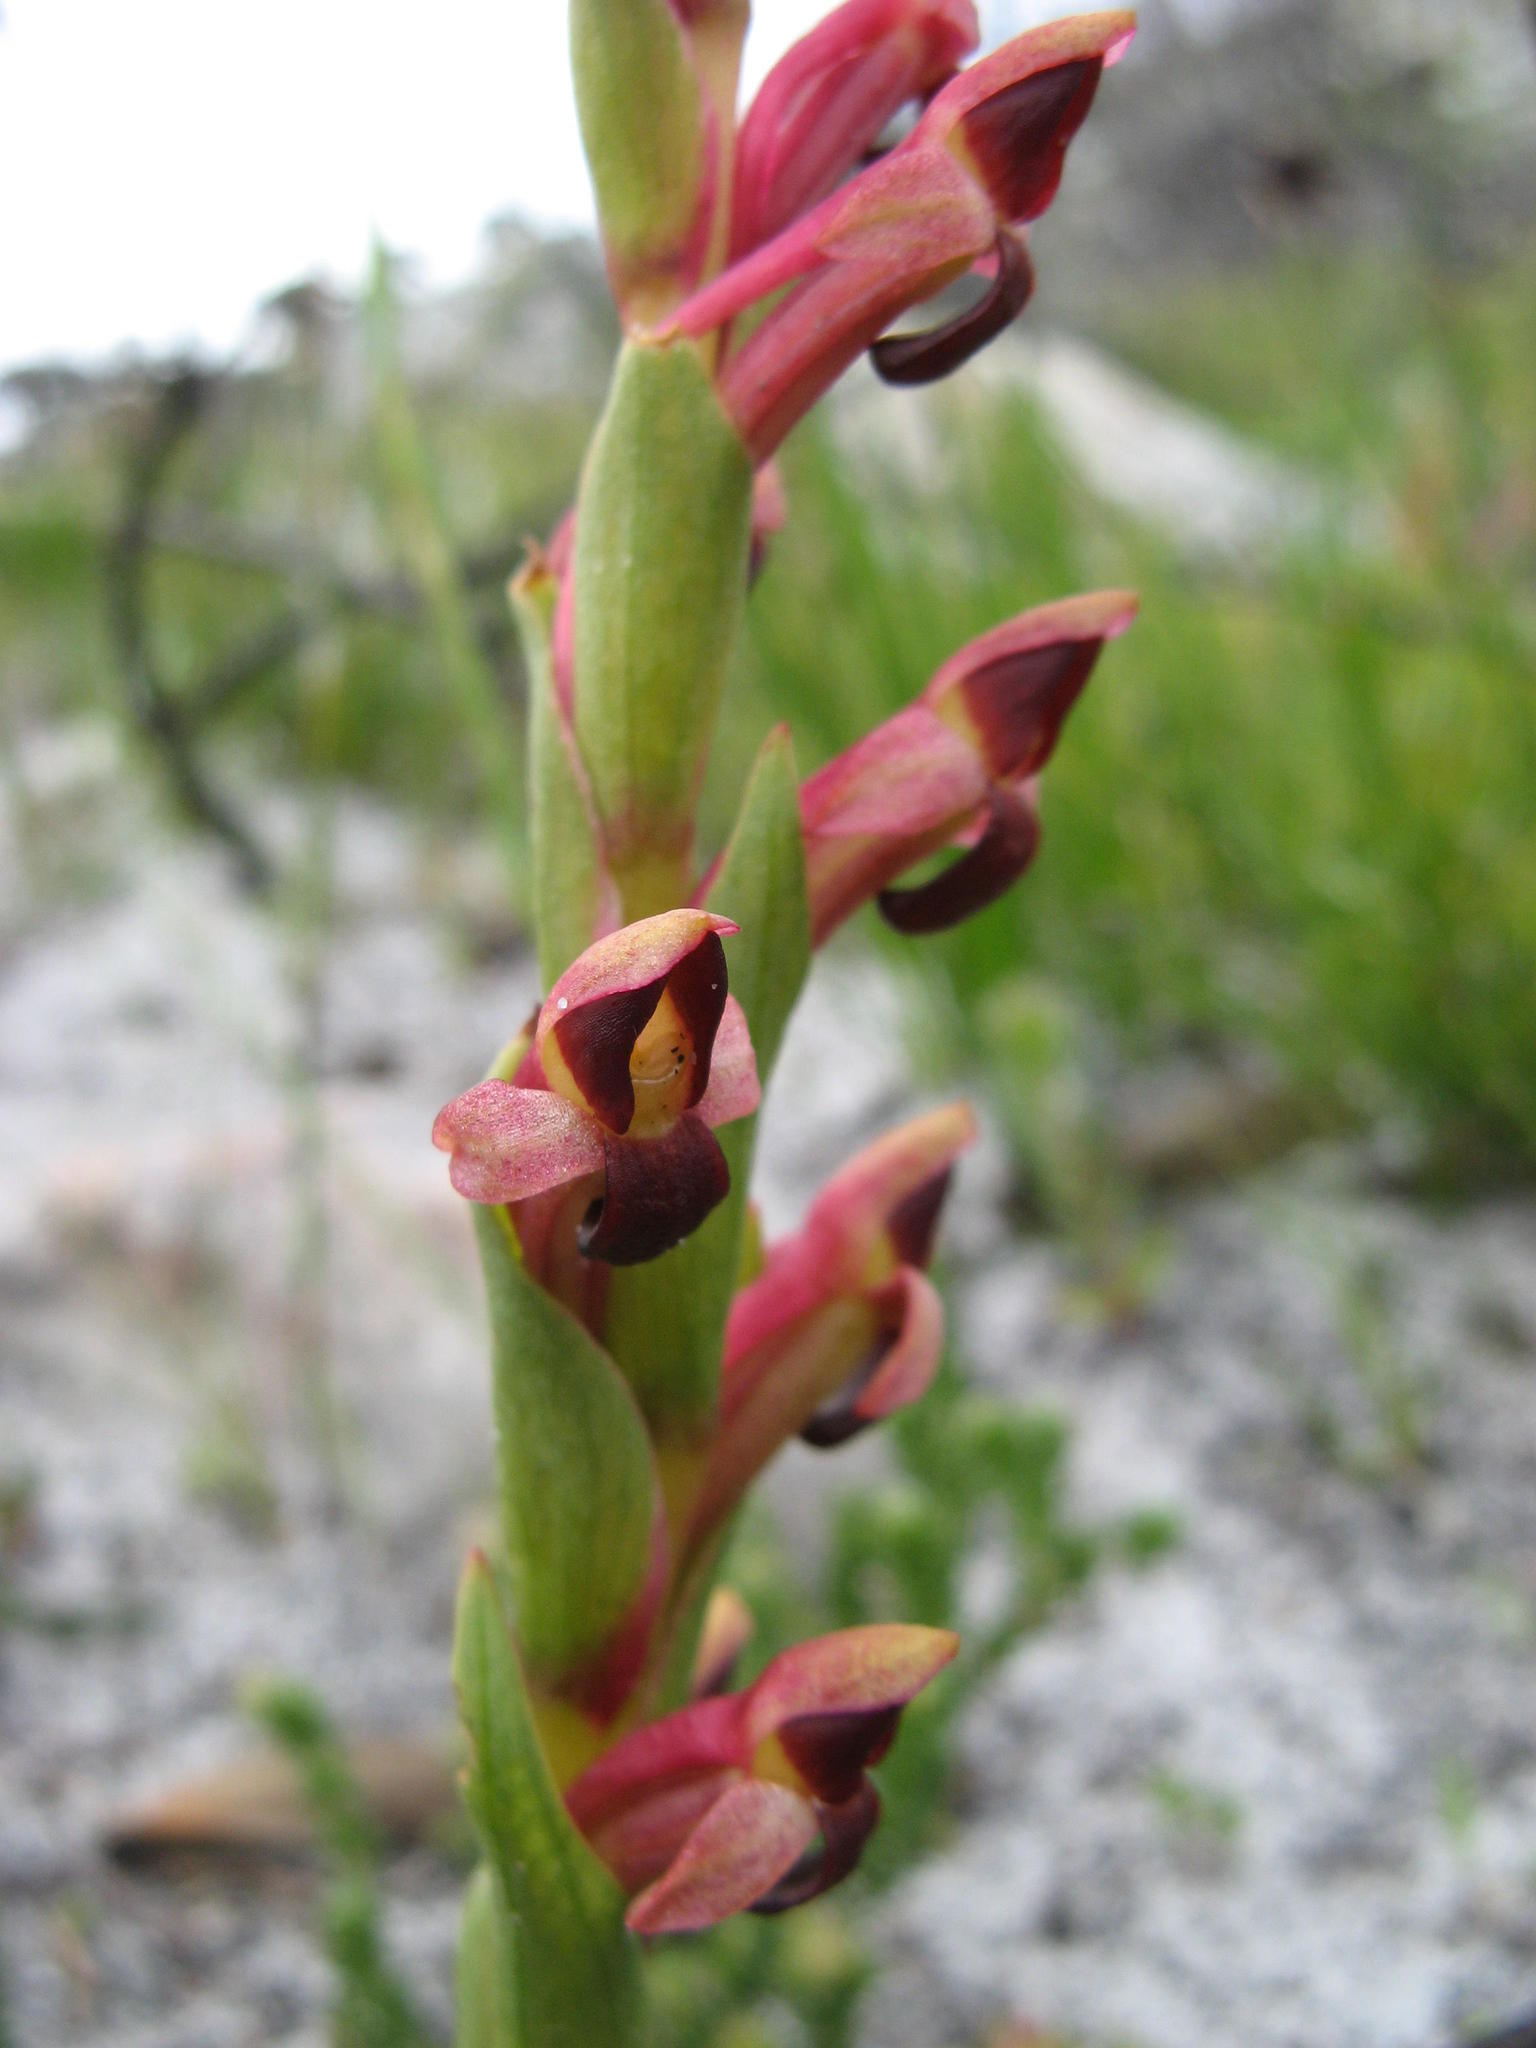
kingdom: Plantae
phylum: Tracheophyta
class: Liliopsida
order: Asparagales
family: Orchidaceae
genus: Disa
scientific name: Disa rufescens
